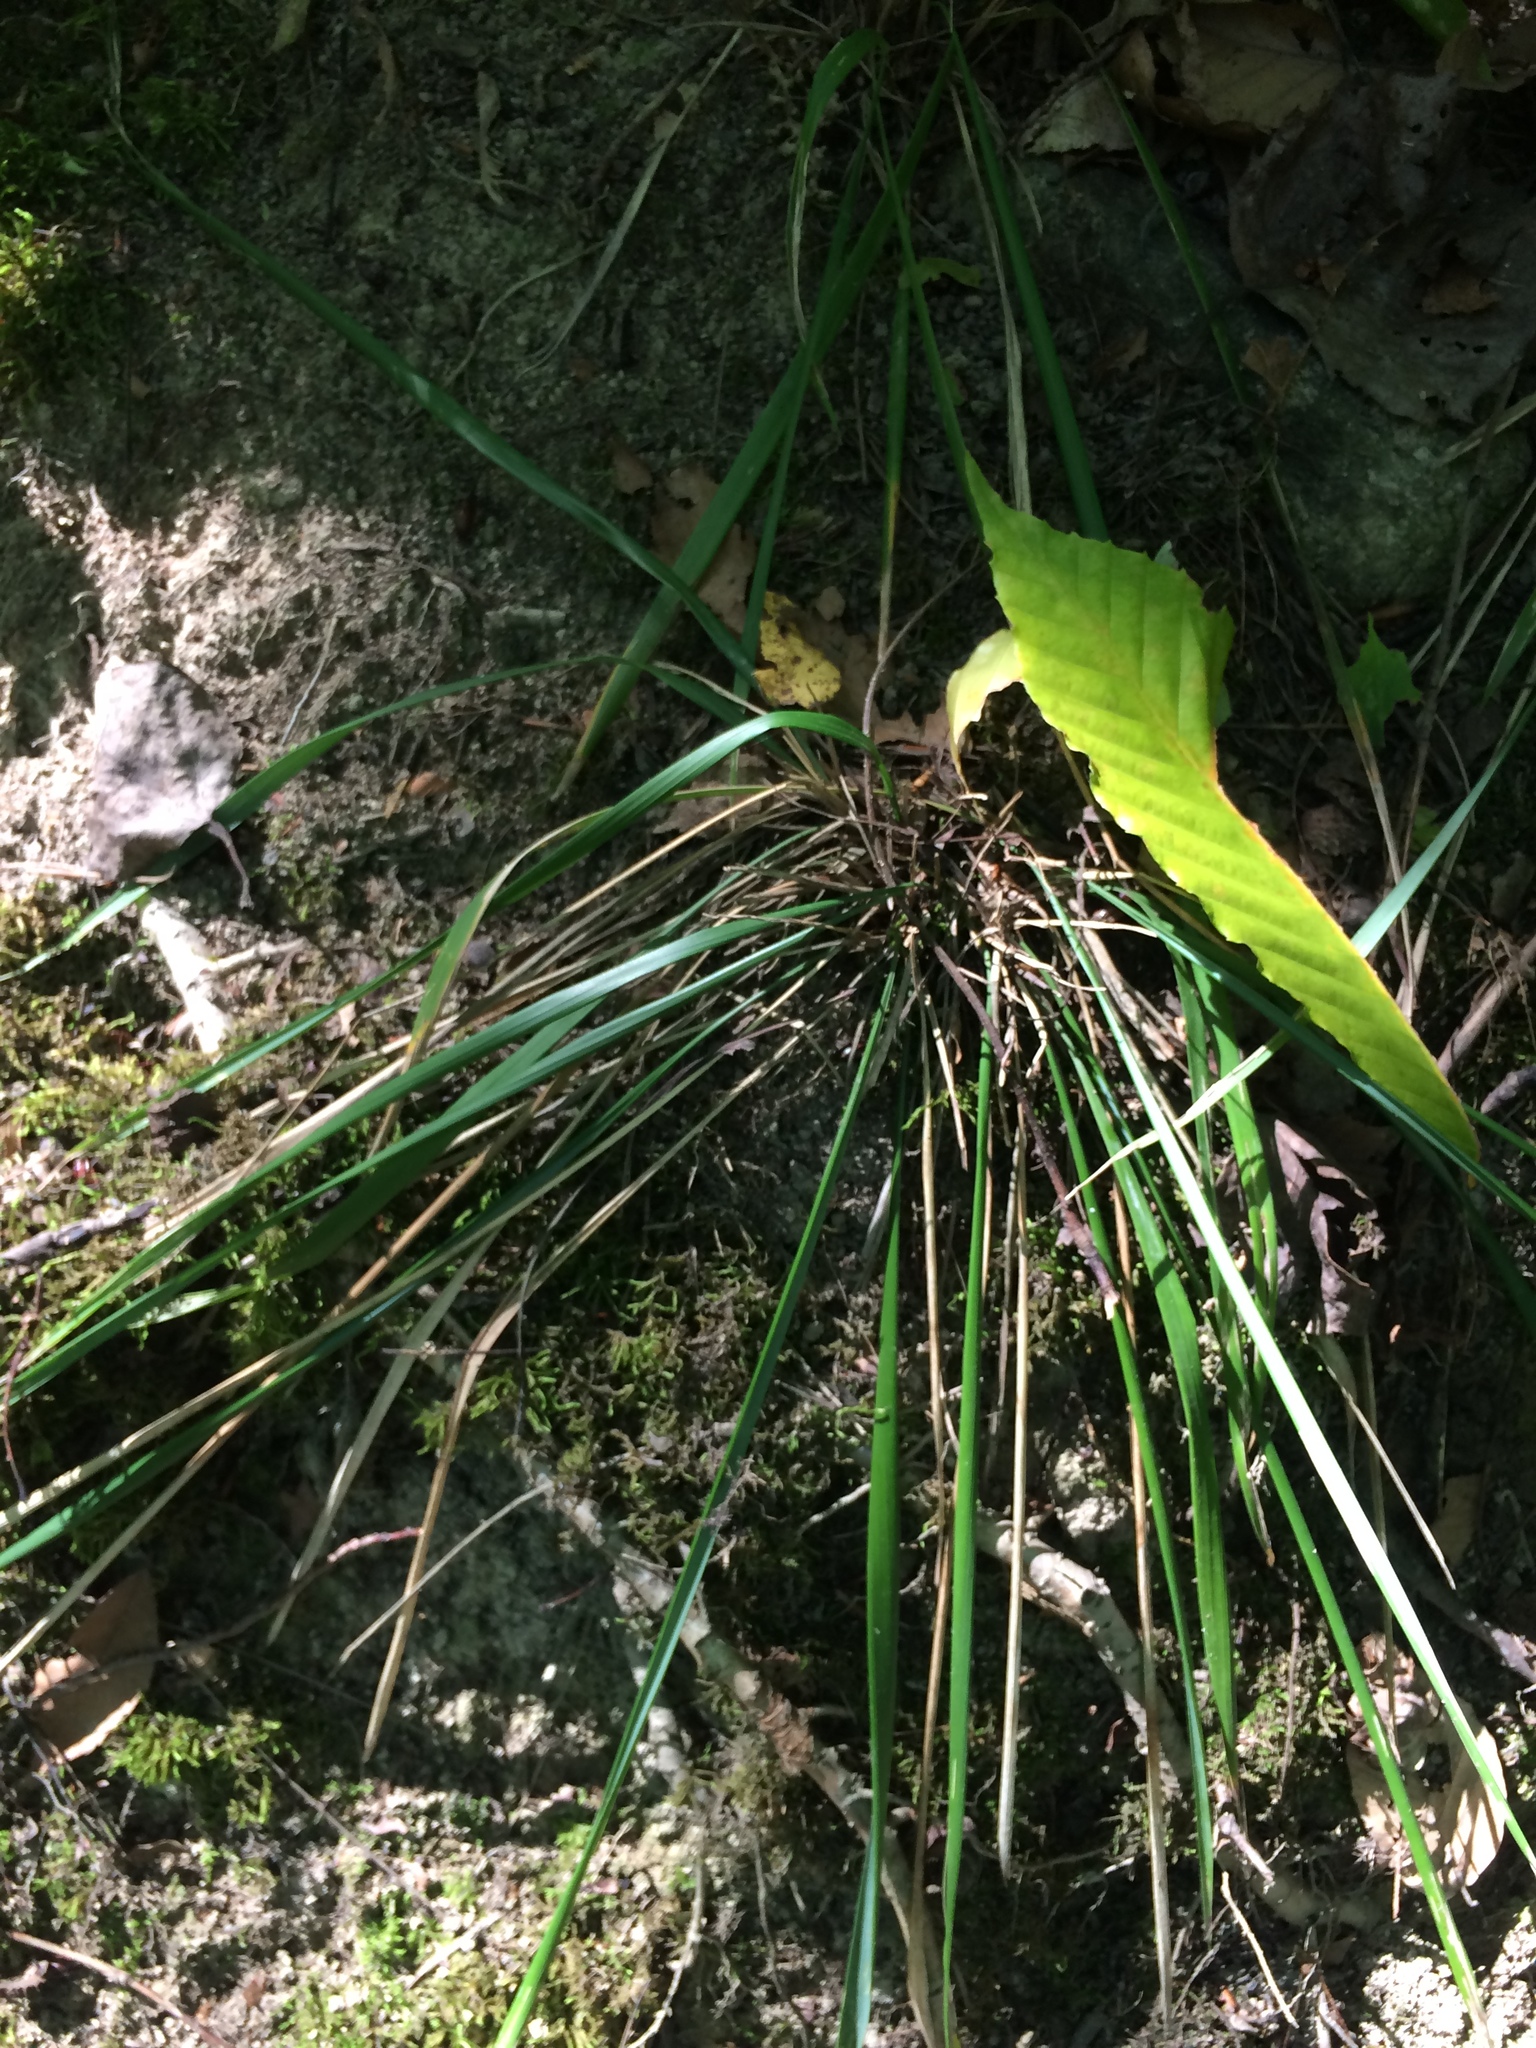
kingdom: Plantae
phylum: Tracheophyta
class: Liliopsida
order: Poales
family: Poaceae
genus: Oryzopsis
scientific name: Oryzopsis asperifolia
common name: Rough-leaved mountain rice
